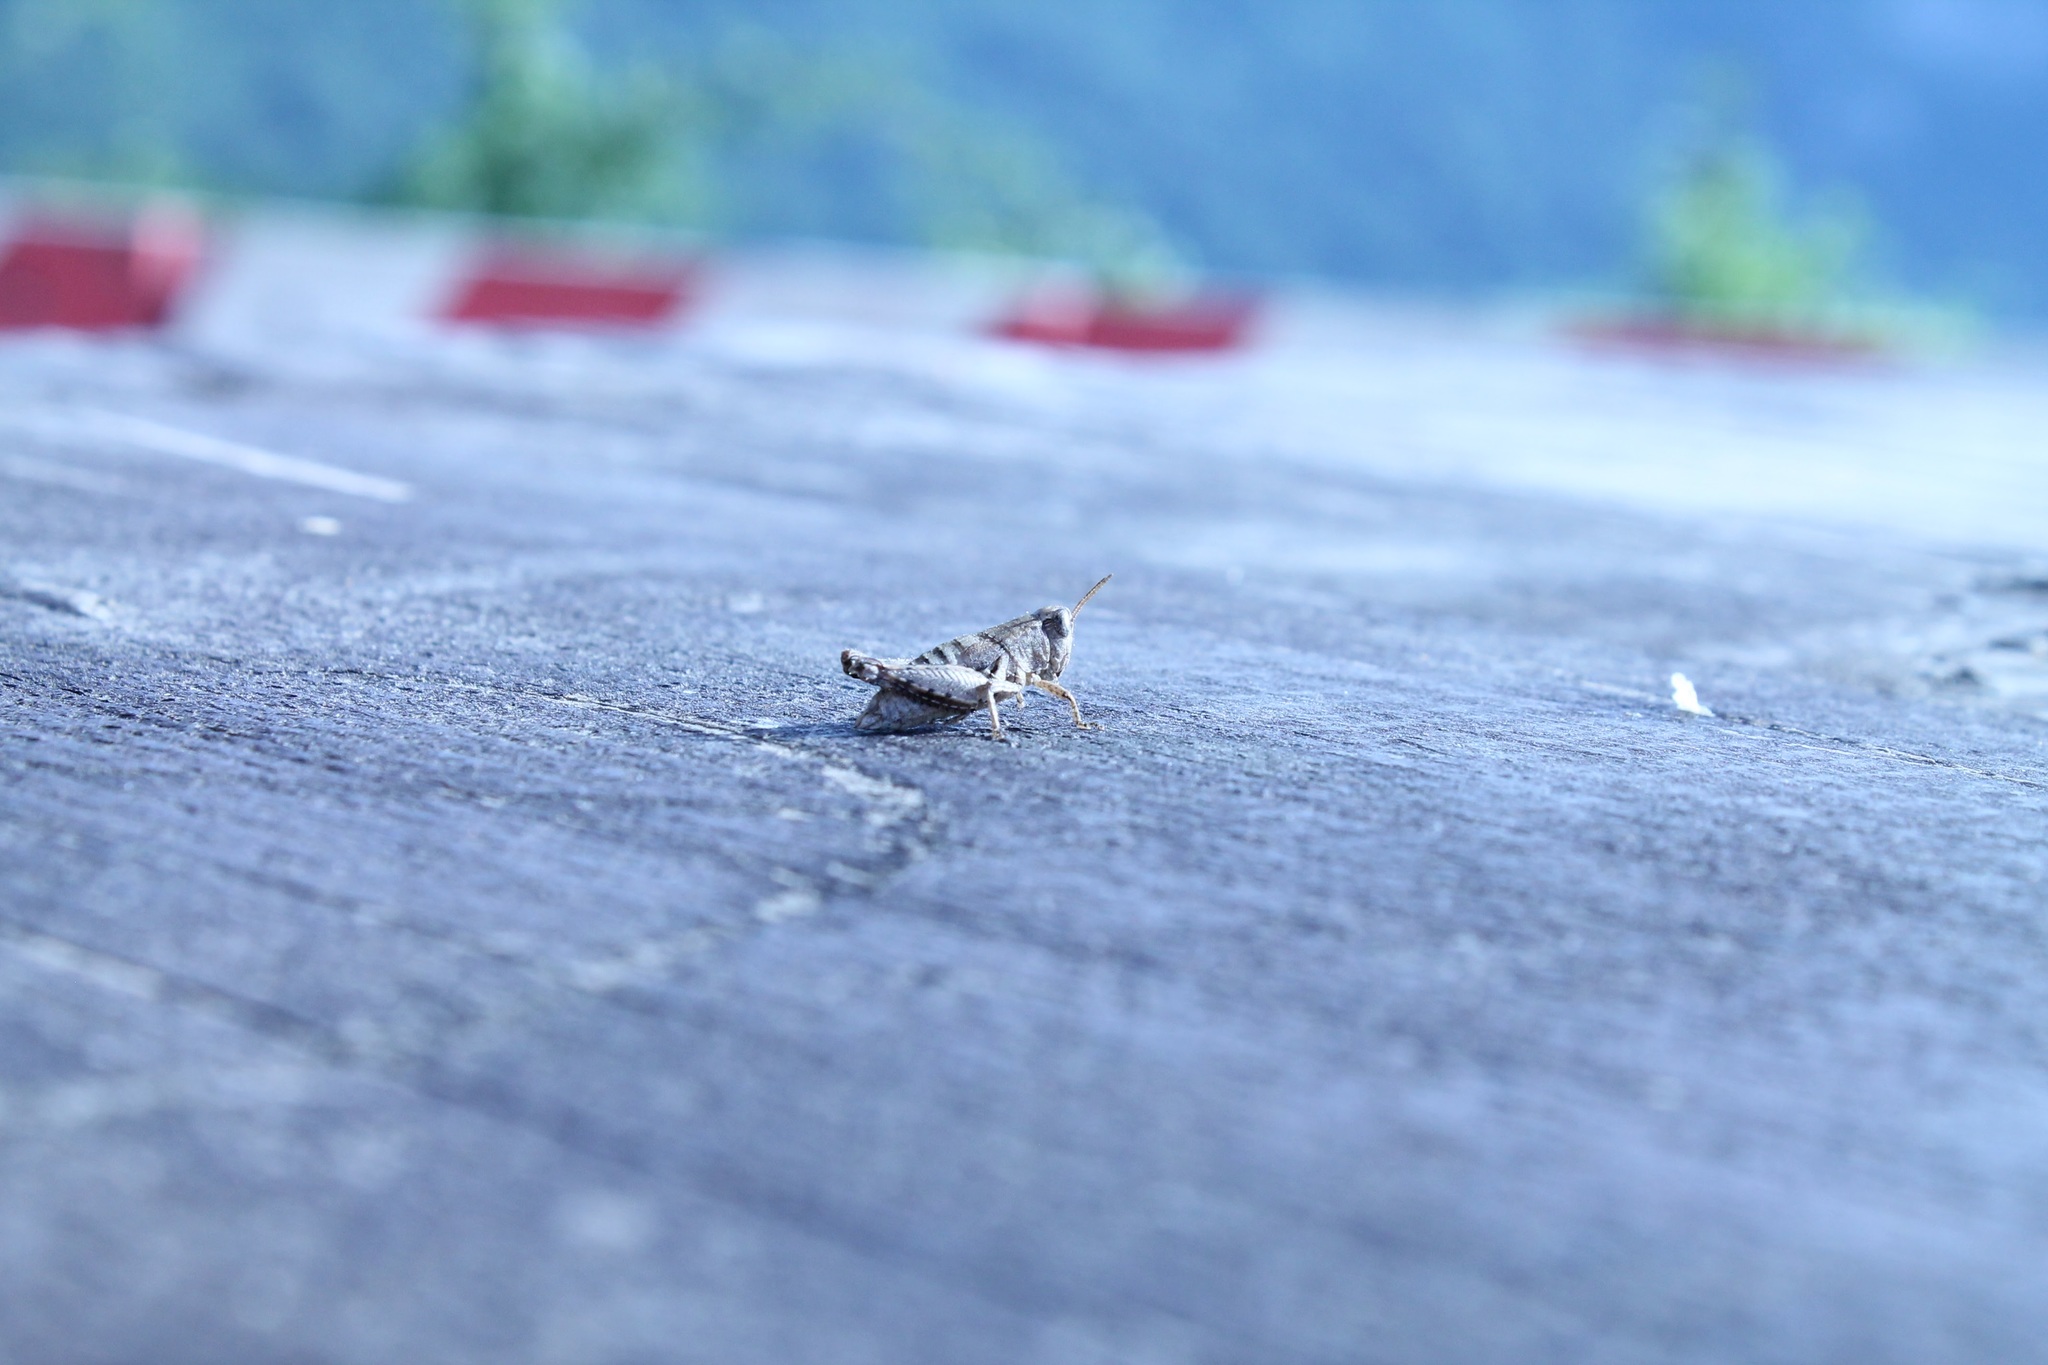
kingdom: Animalia
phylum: Arthropoda
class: Insecta
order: Orthoptera
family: Acrididae
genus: Pezotettix
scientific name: Pezotettix giornae
